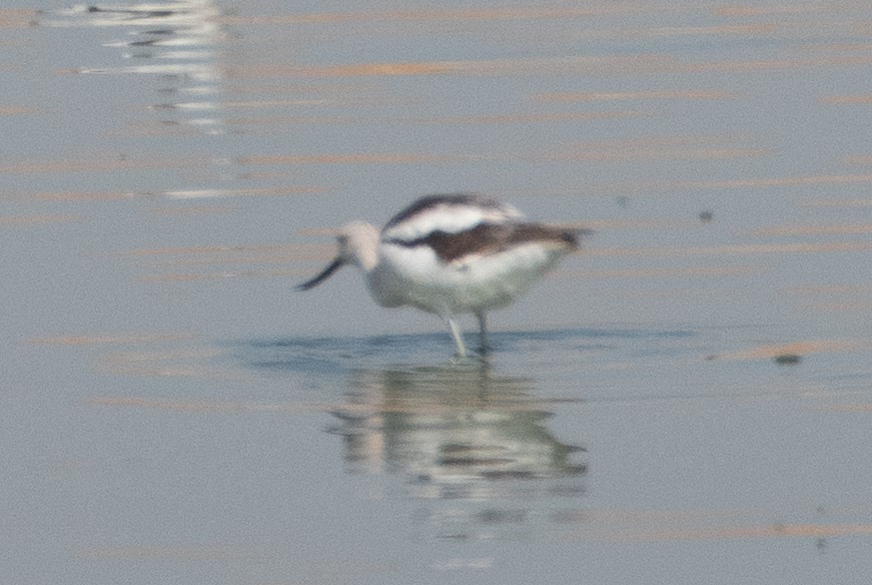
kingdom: Animalia
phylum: Chordata
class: Aves
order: Charadriiformes
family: Recurvirostridae
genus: Recurvirostra
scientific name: Recurvirostra americana
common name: American avocet
